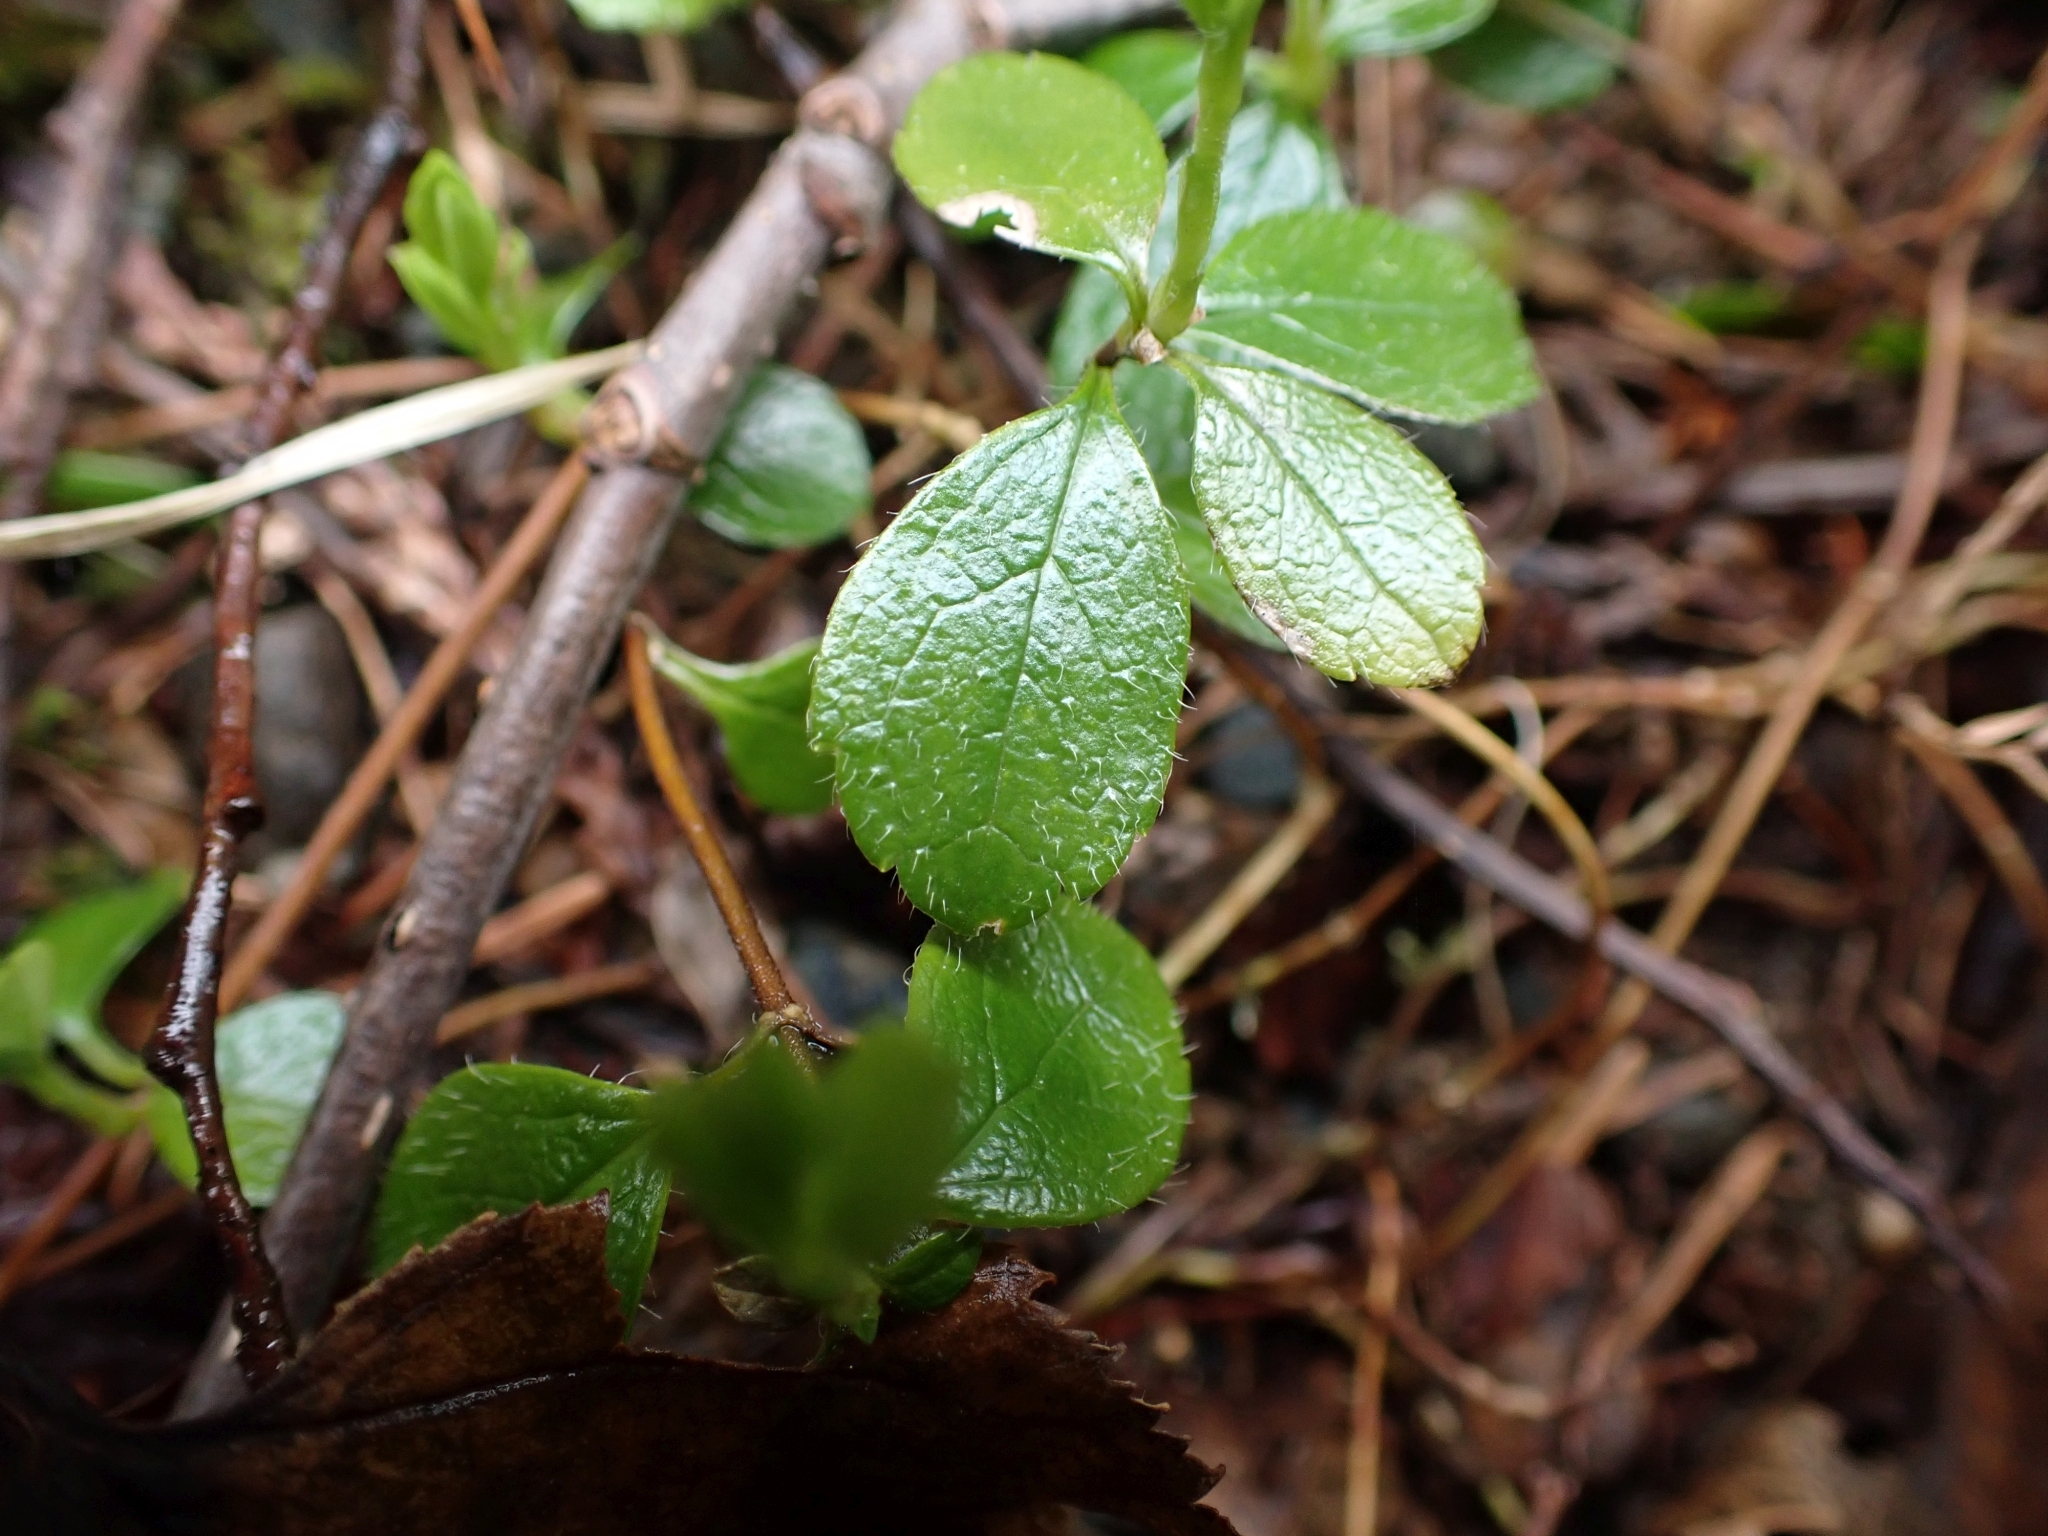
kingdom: Plantae
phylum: Tracheophyta
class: Magnoliopsida
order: Dipsacales
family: Caprifoliaceae
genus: Linnaea
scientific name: Linnaea borealis
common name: Twinflower
